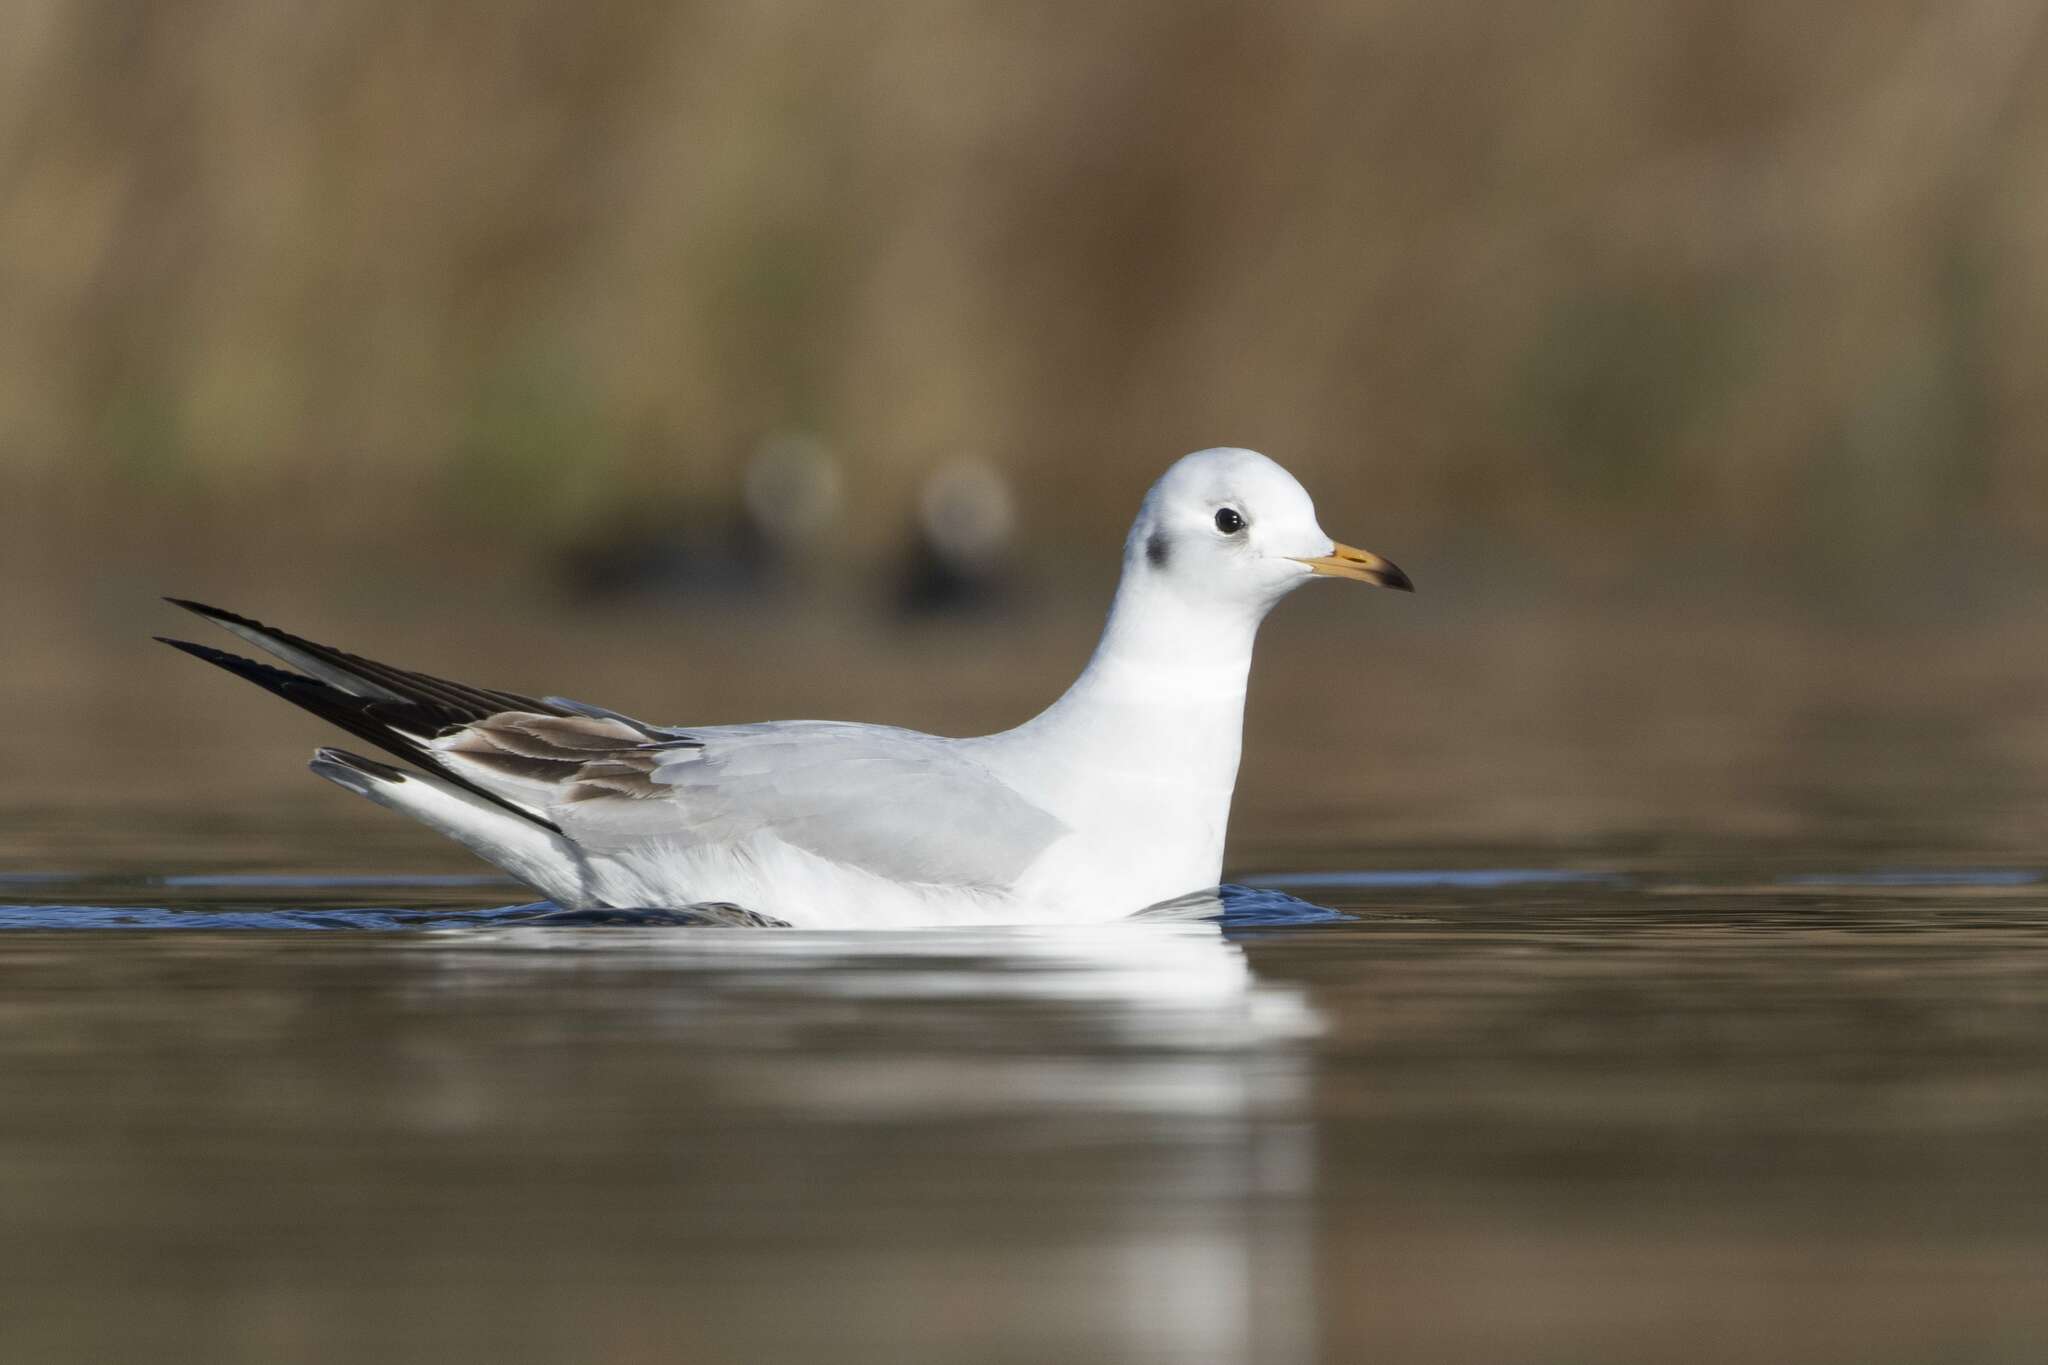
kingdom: Animalia
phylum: Chordata
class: Aves
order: Charadriiformes
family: Laridae
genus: Chroicocephalus
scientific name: Chroicocephalus ridibundus
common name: Black-headed gull
